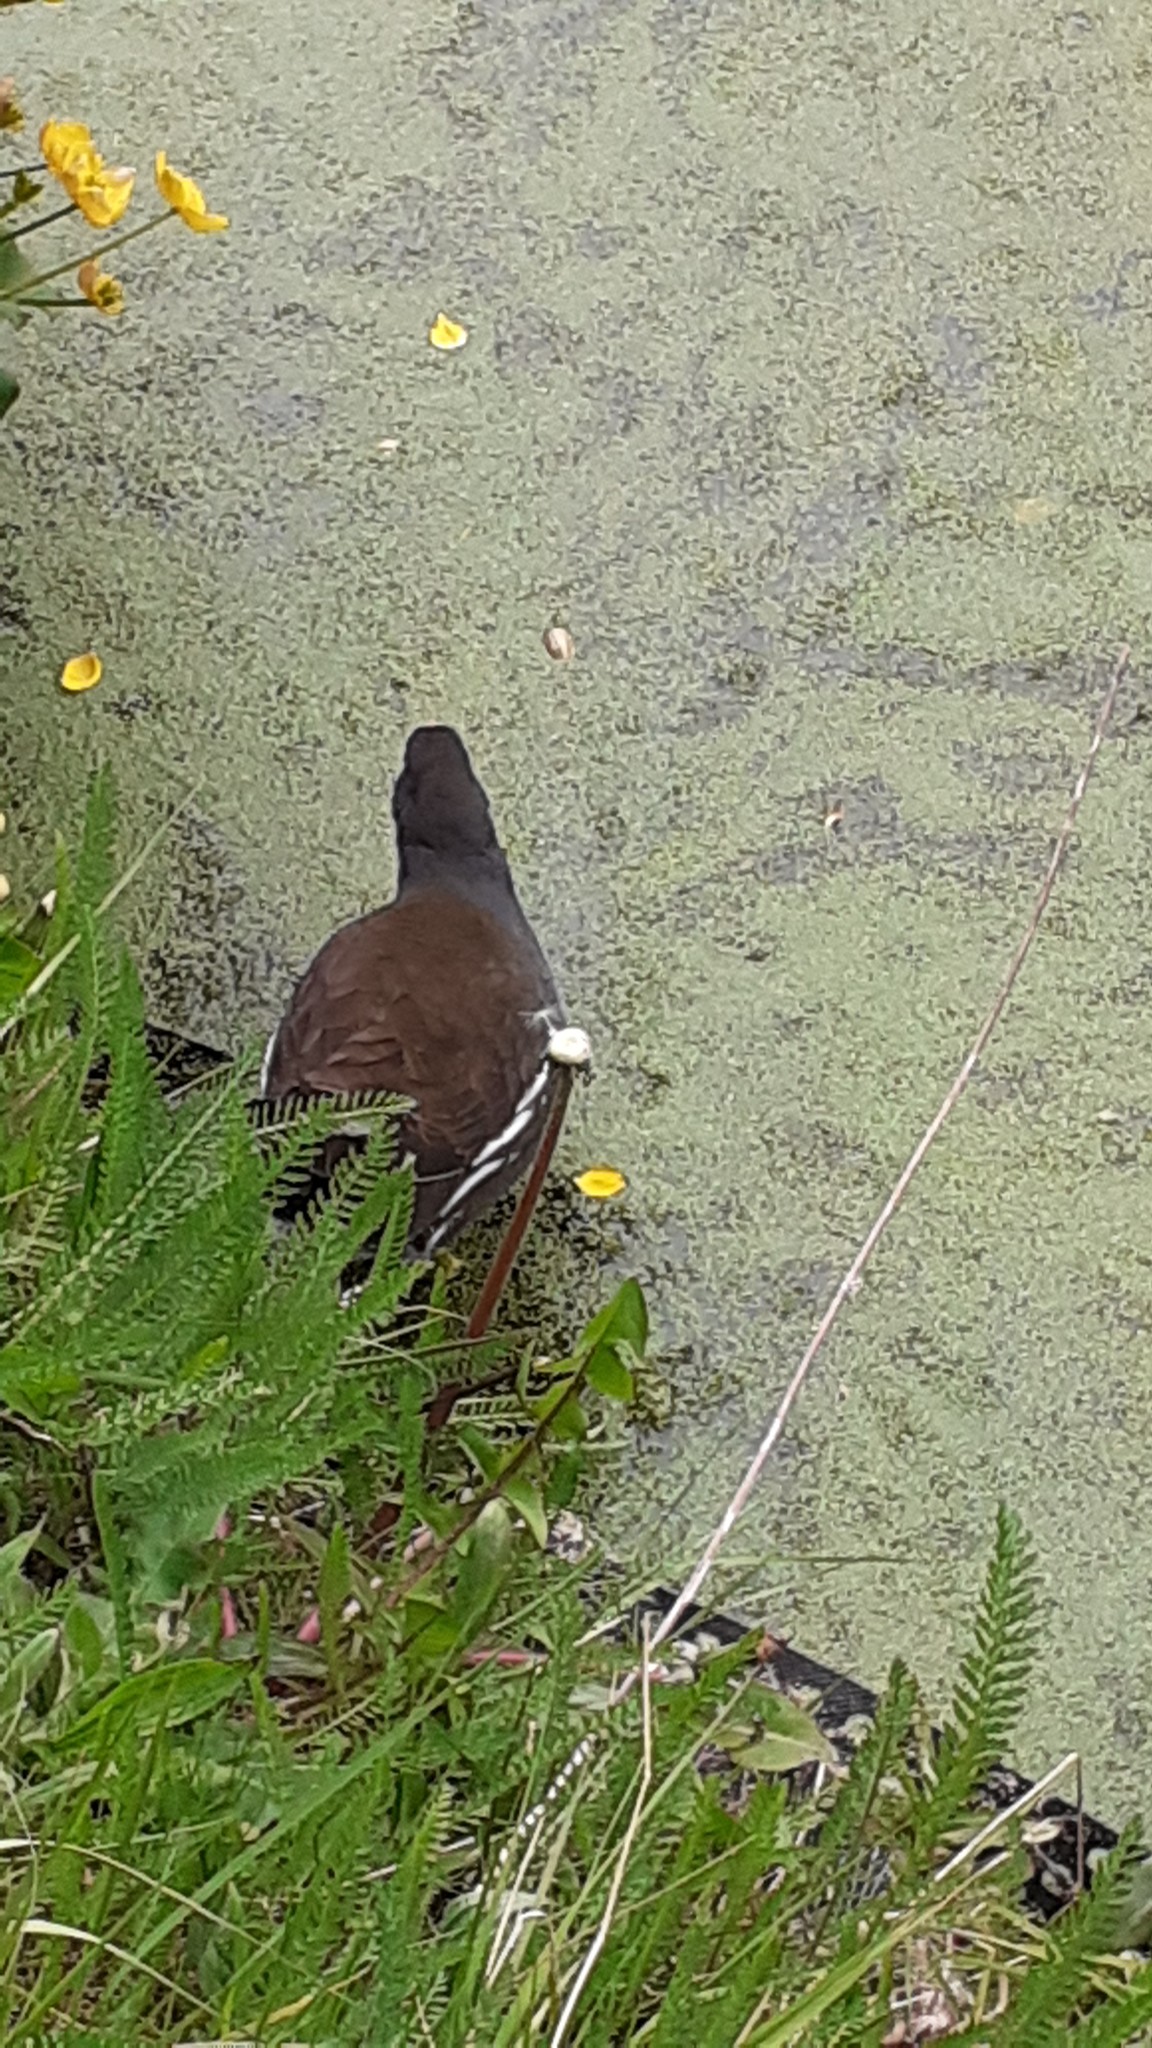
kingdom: Animalia
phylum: Chordata
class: Aves
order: Gruiformes
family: Rallidae
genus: Gallinula
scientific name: Gallinula chloropus
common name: Common moorhen
